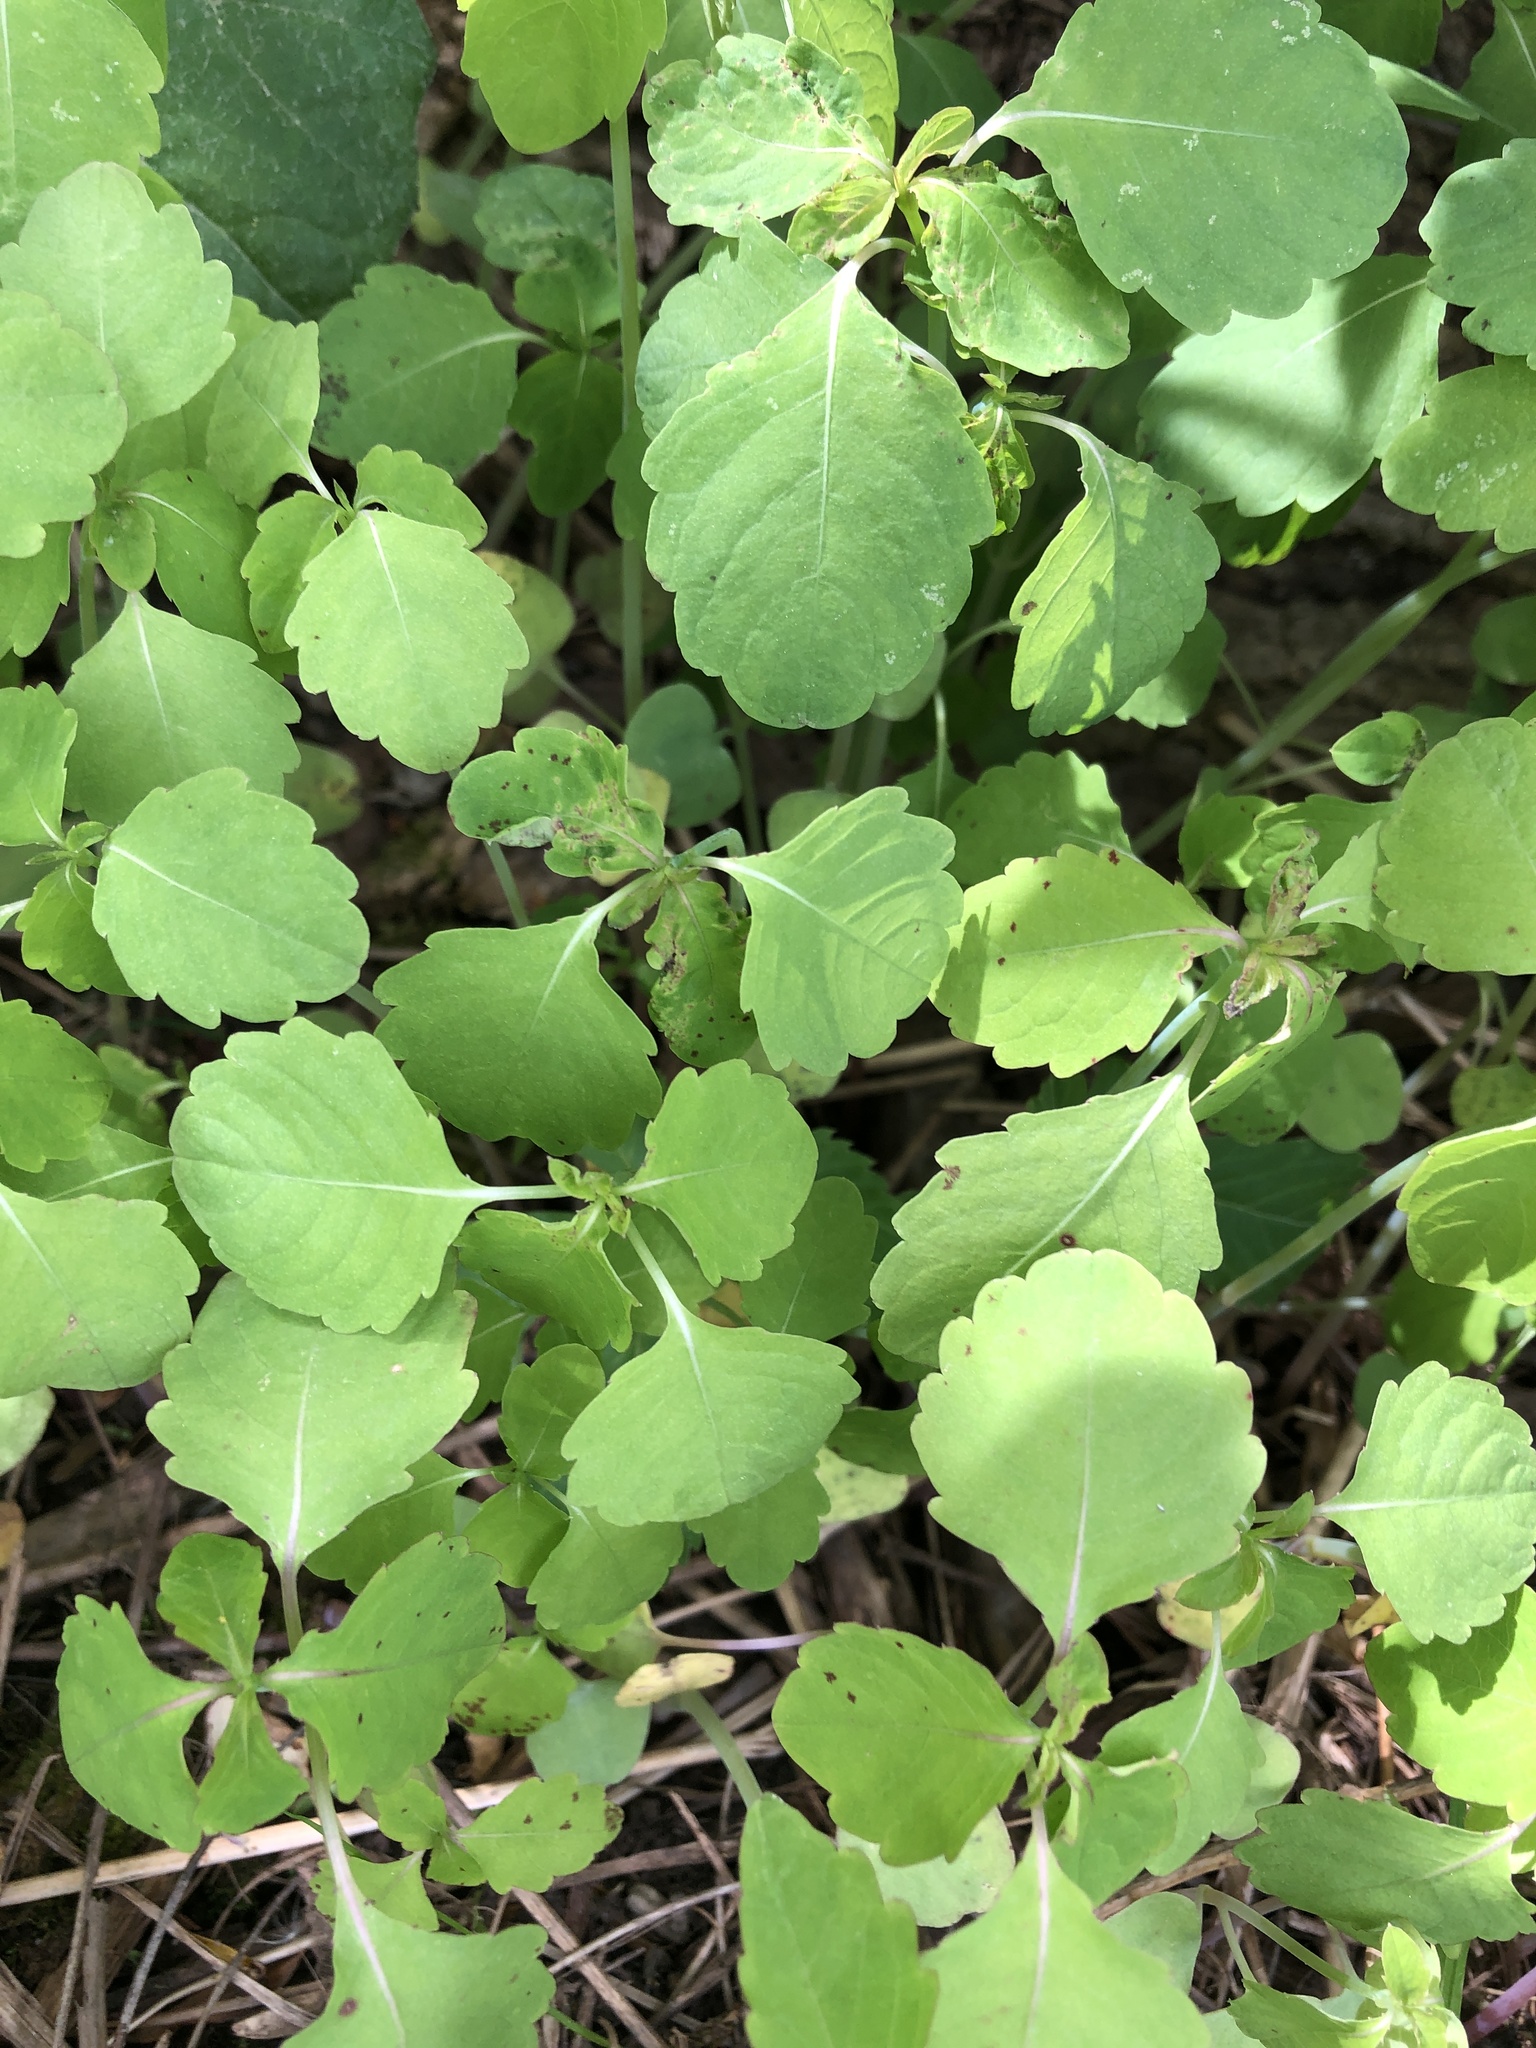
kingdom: Plantae
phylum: Tracheophyta
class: Magnoliopsida
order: Ericales
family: Balsaminaceae
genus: Impatiens
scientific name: Impatiens capensis
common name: Orange balsam
